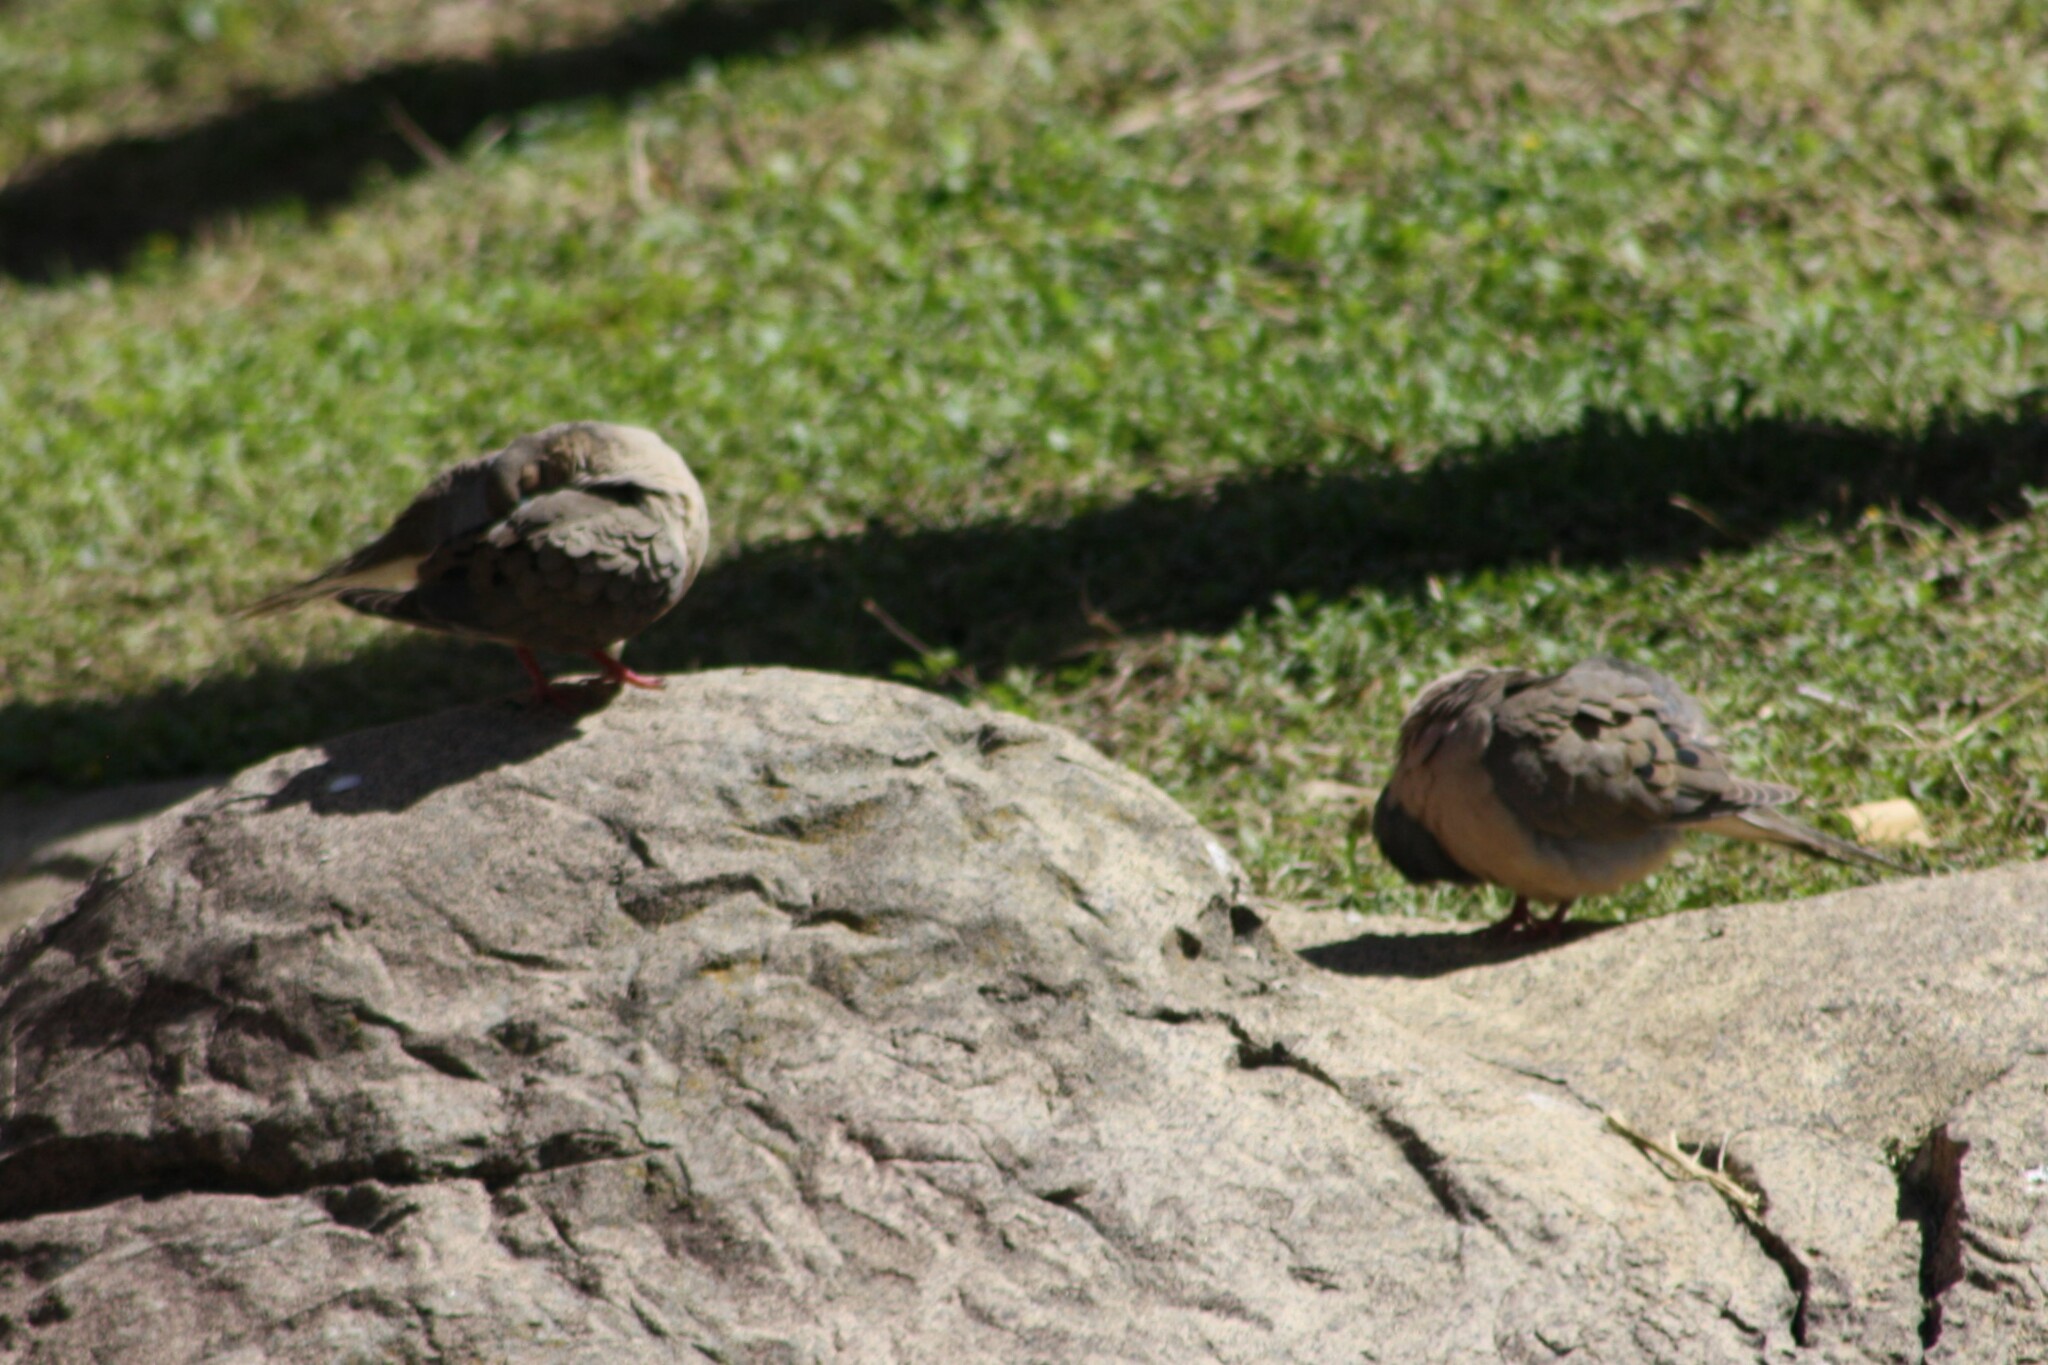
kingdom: Animalia
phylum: Chordata
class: Aves
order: Columbiformes
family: Columbidae
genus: Zenaida
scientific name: Zenaida macroura
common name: Mourning dove
